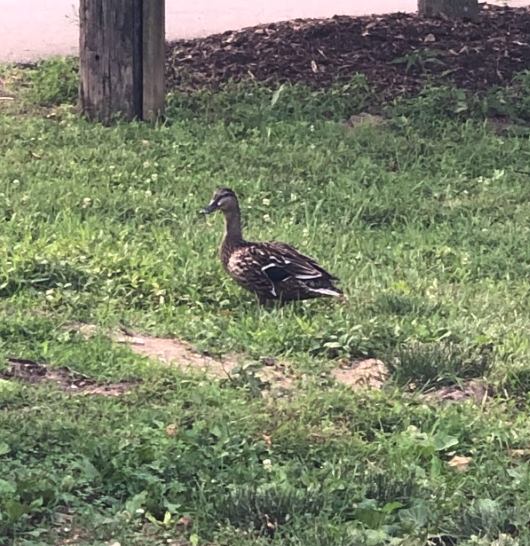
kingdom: Animalia
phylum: Chordata
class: Aves
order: Anseriformes
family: Anatidae
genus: Anas
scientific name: Anas platyrhynchos
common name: Mallard
